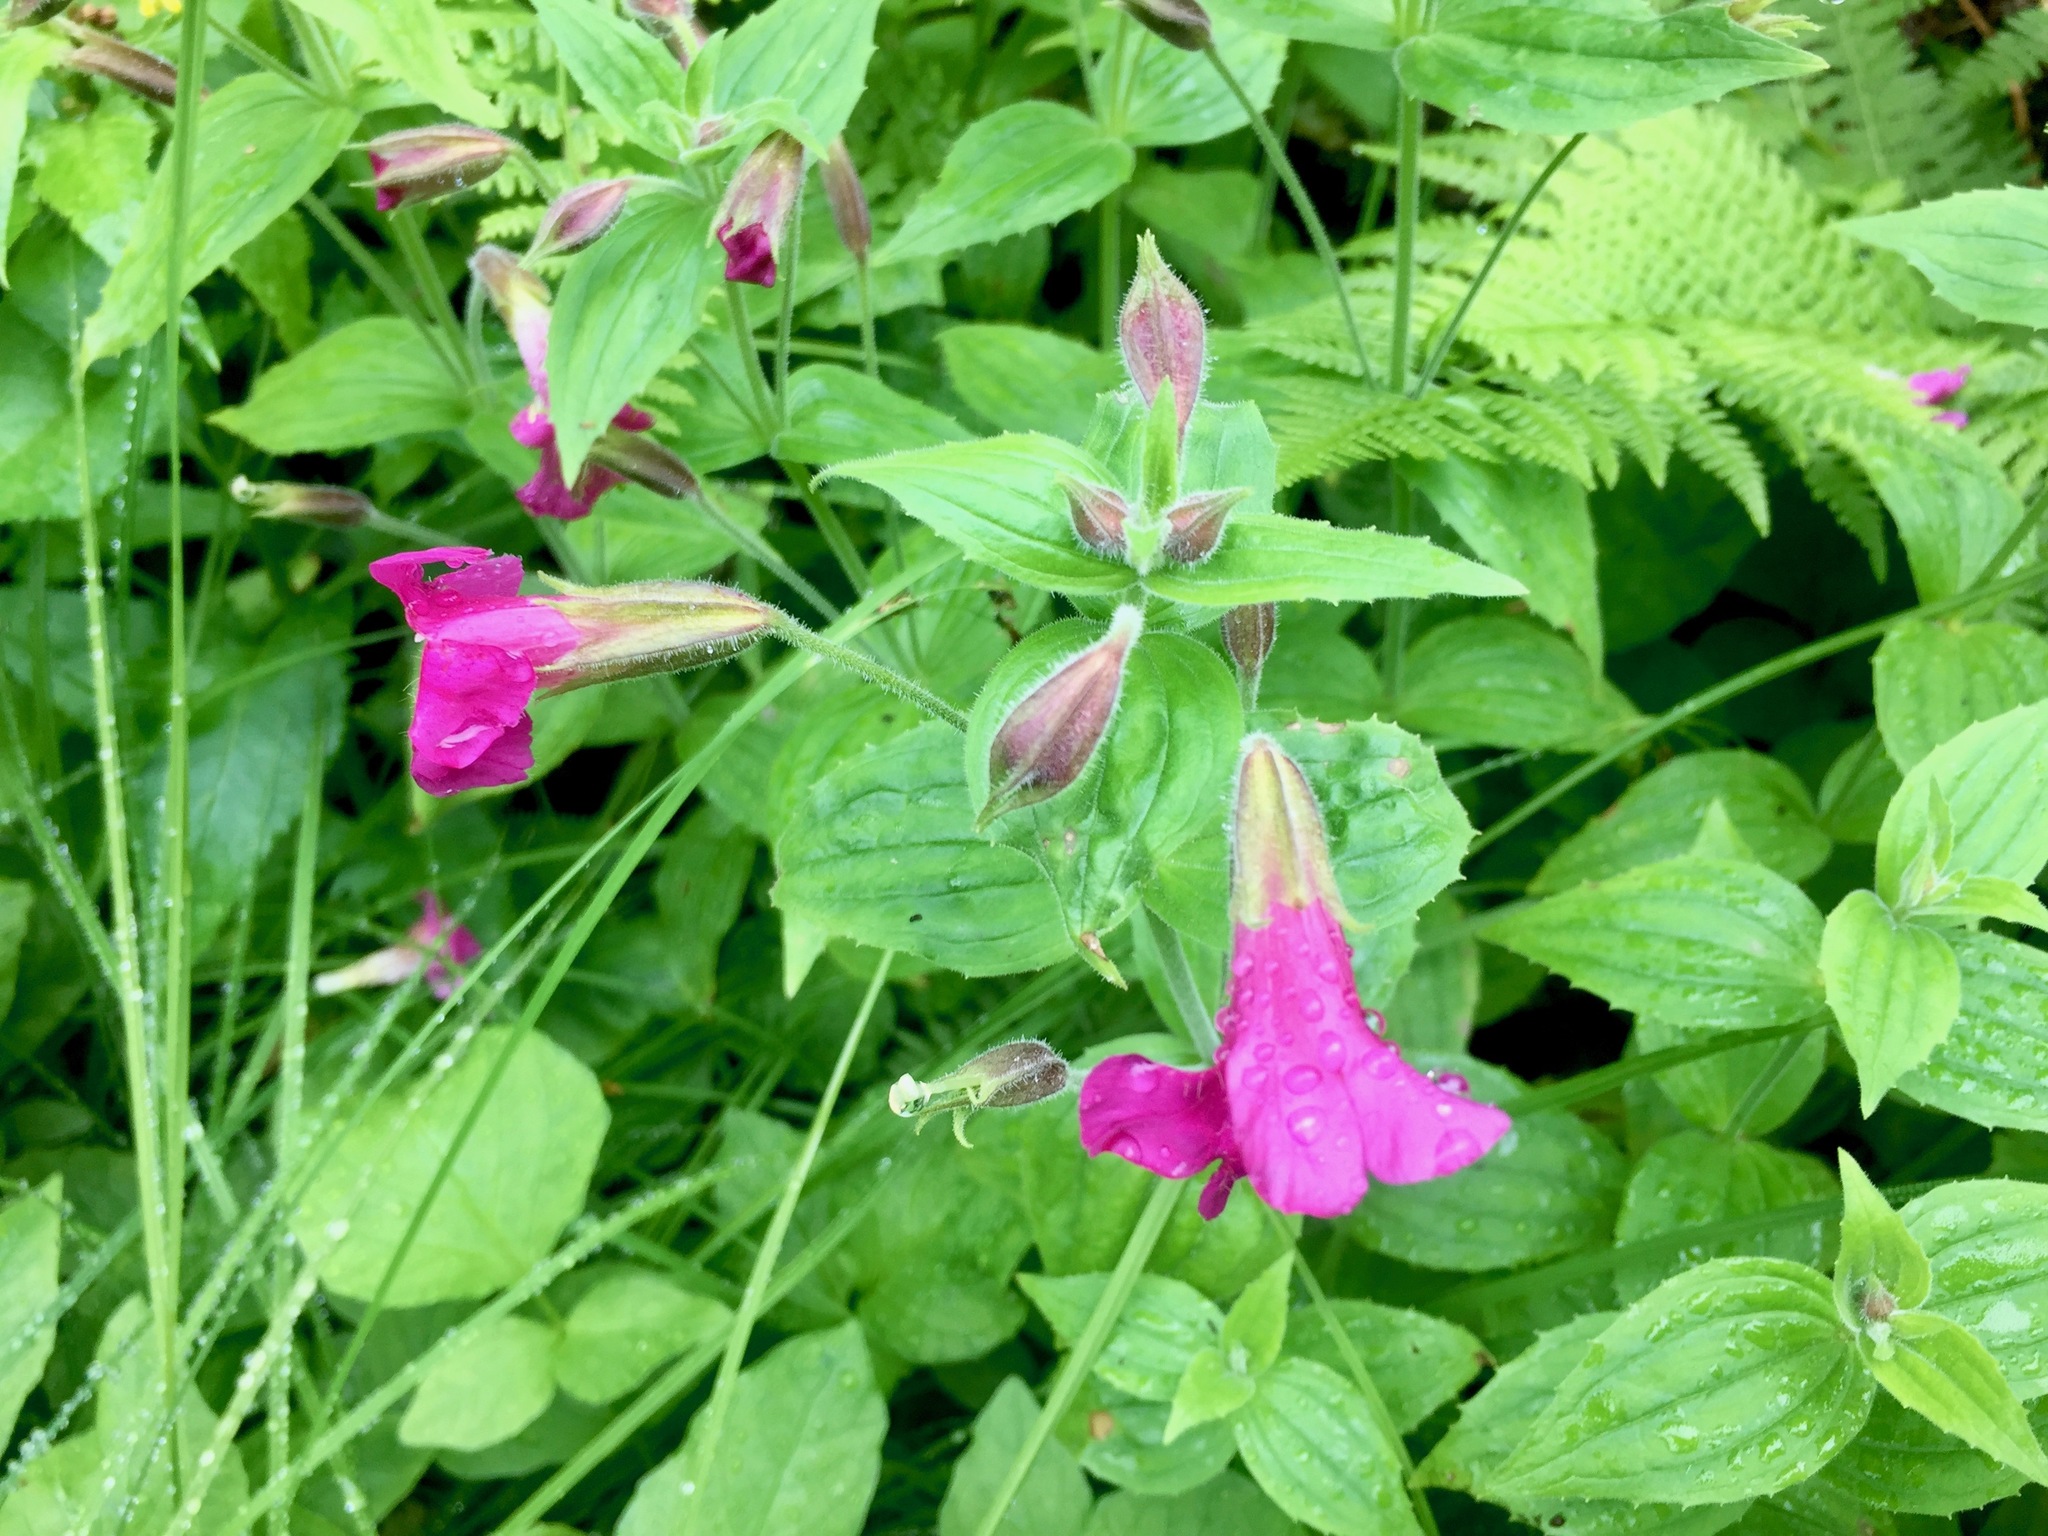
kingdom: Plantae
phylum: Tracheophyta
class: Magnoliopsida
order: Lamiales
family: Phrymaceae
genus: Erythranthe
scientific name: Erythranthe lewisii
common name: Lewis's monkey-flower
